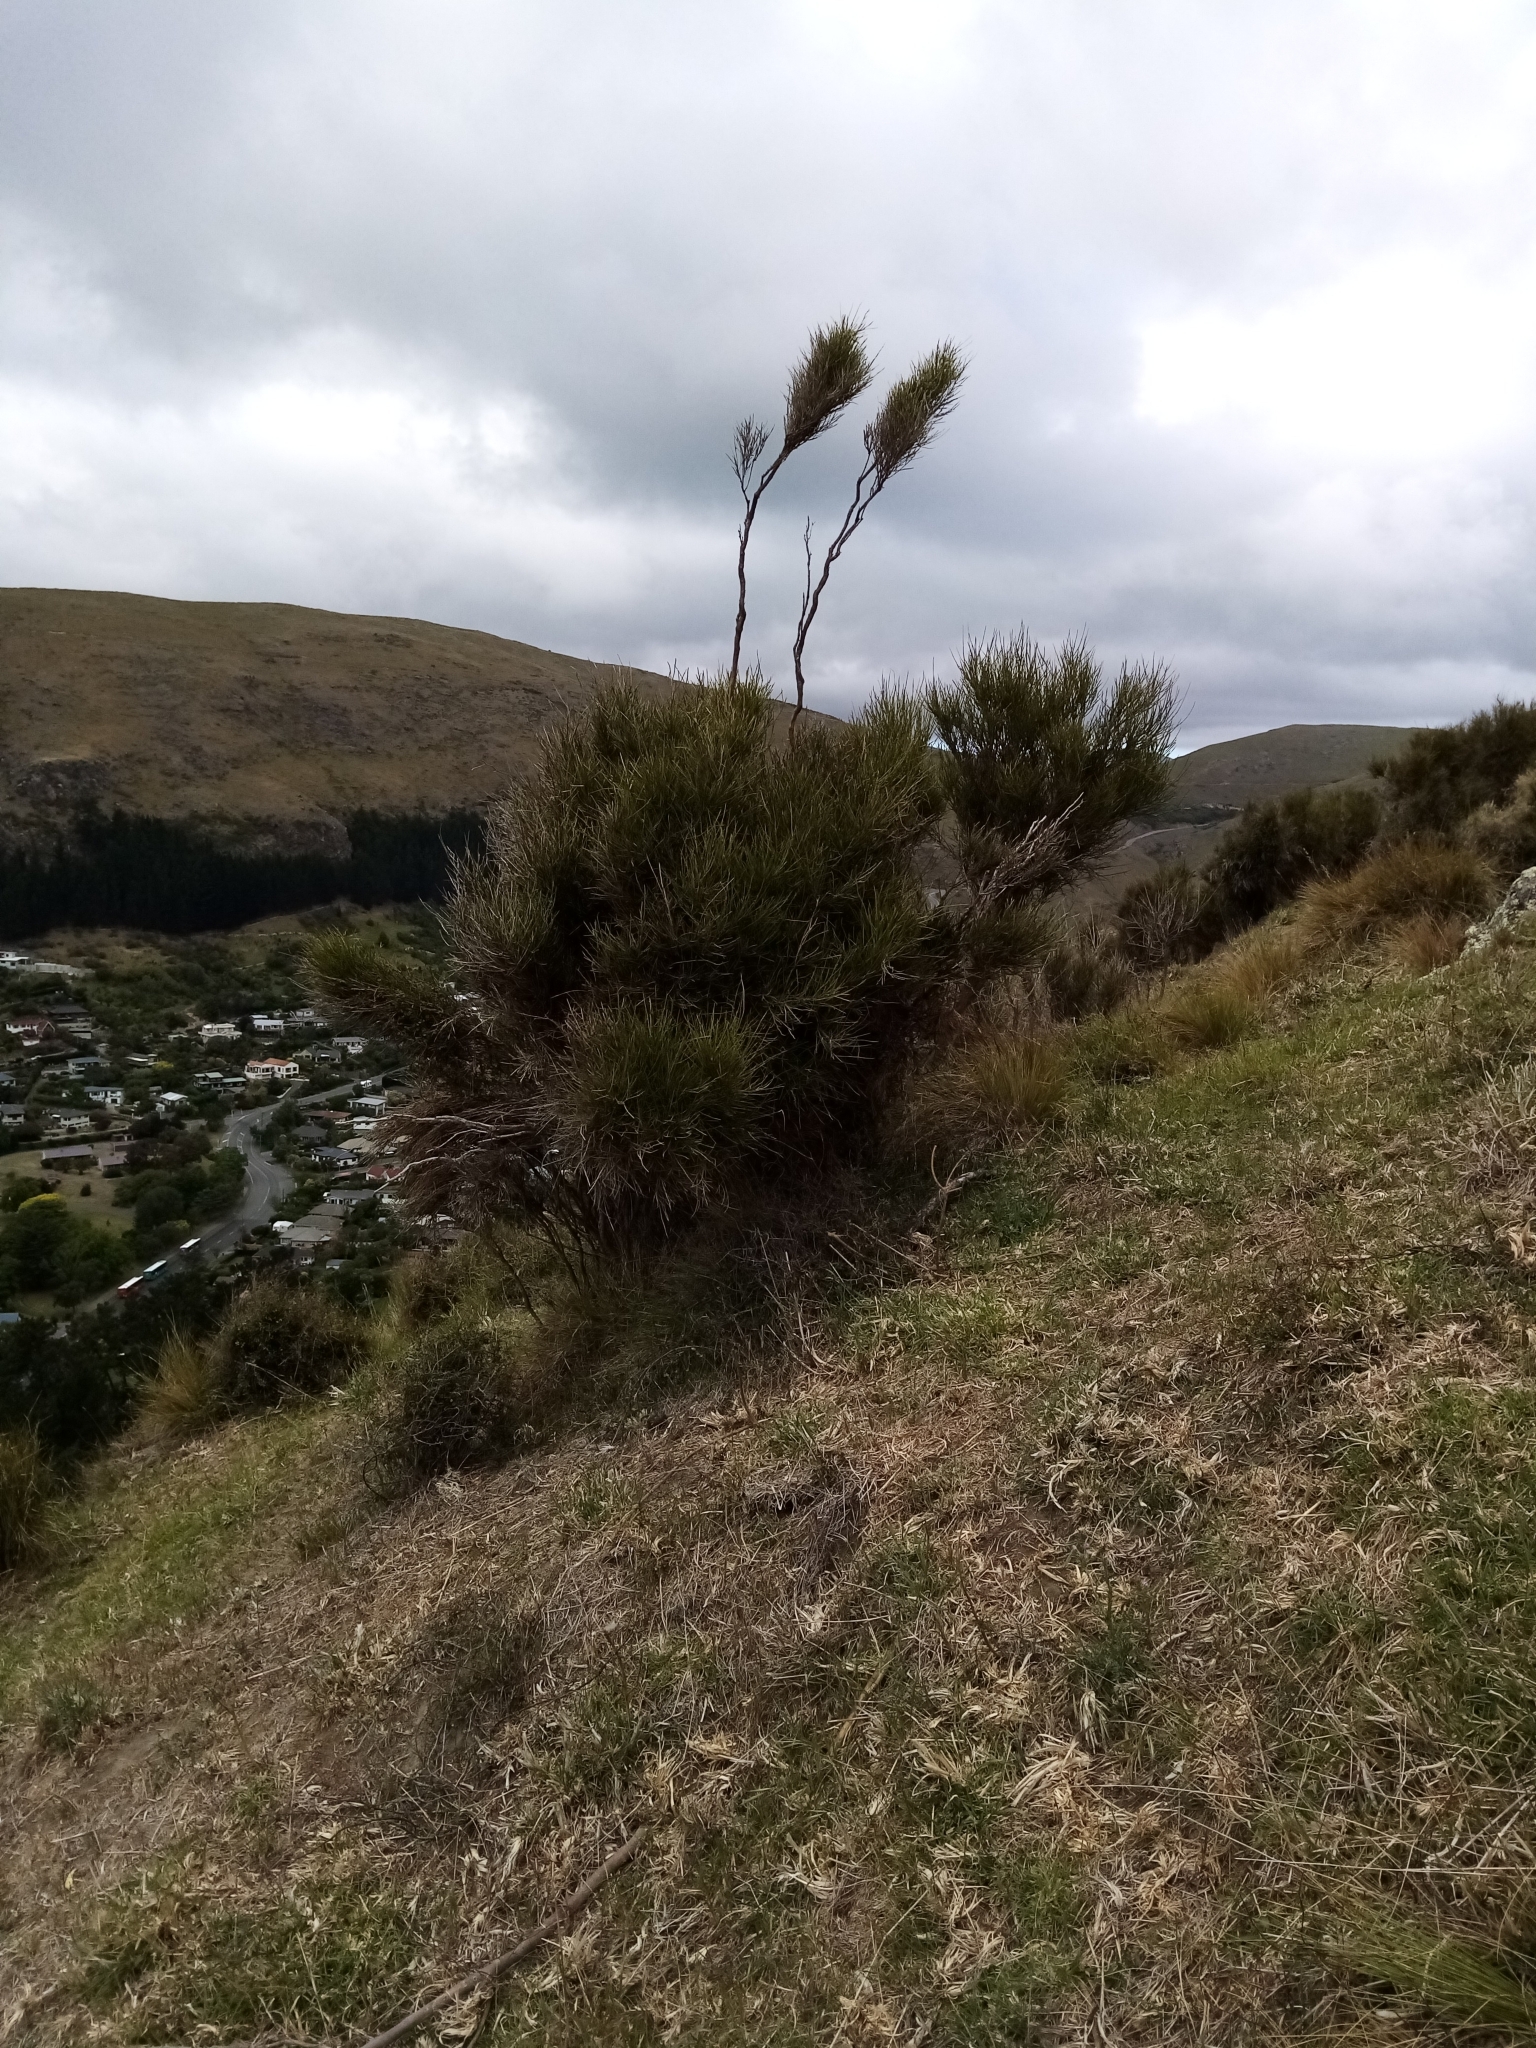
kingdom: Plantae
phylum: Tracheophyta
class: Magnoliopsida
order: Fabales
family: Fabaceae
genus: Carmichaelia
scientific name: Carmichaelia australis
